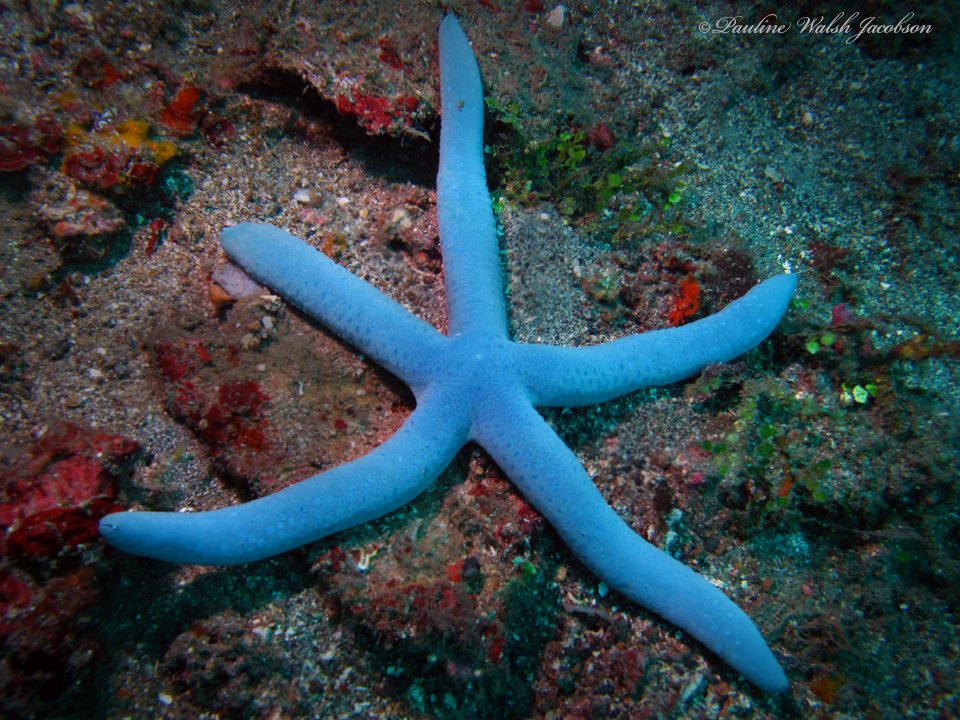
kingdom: Animalia
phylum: Echinodermata
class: Asteroidea
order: Valvatida
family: Ophidiasteridae
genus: Linckia
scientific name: Linckia laevigata
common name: Azure sea star
